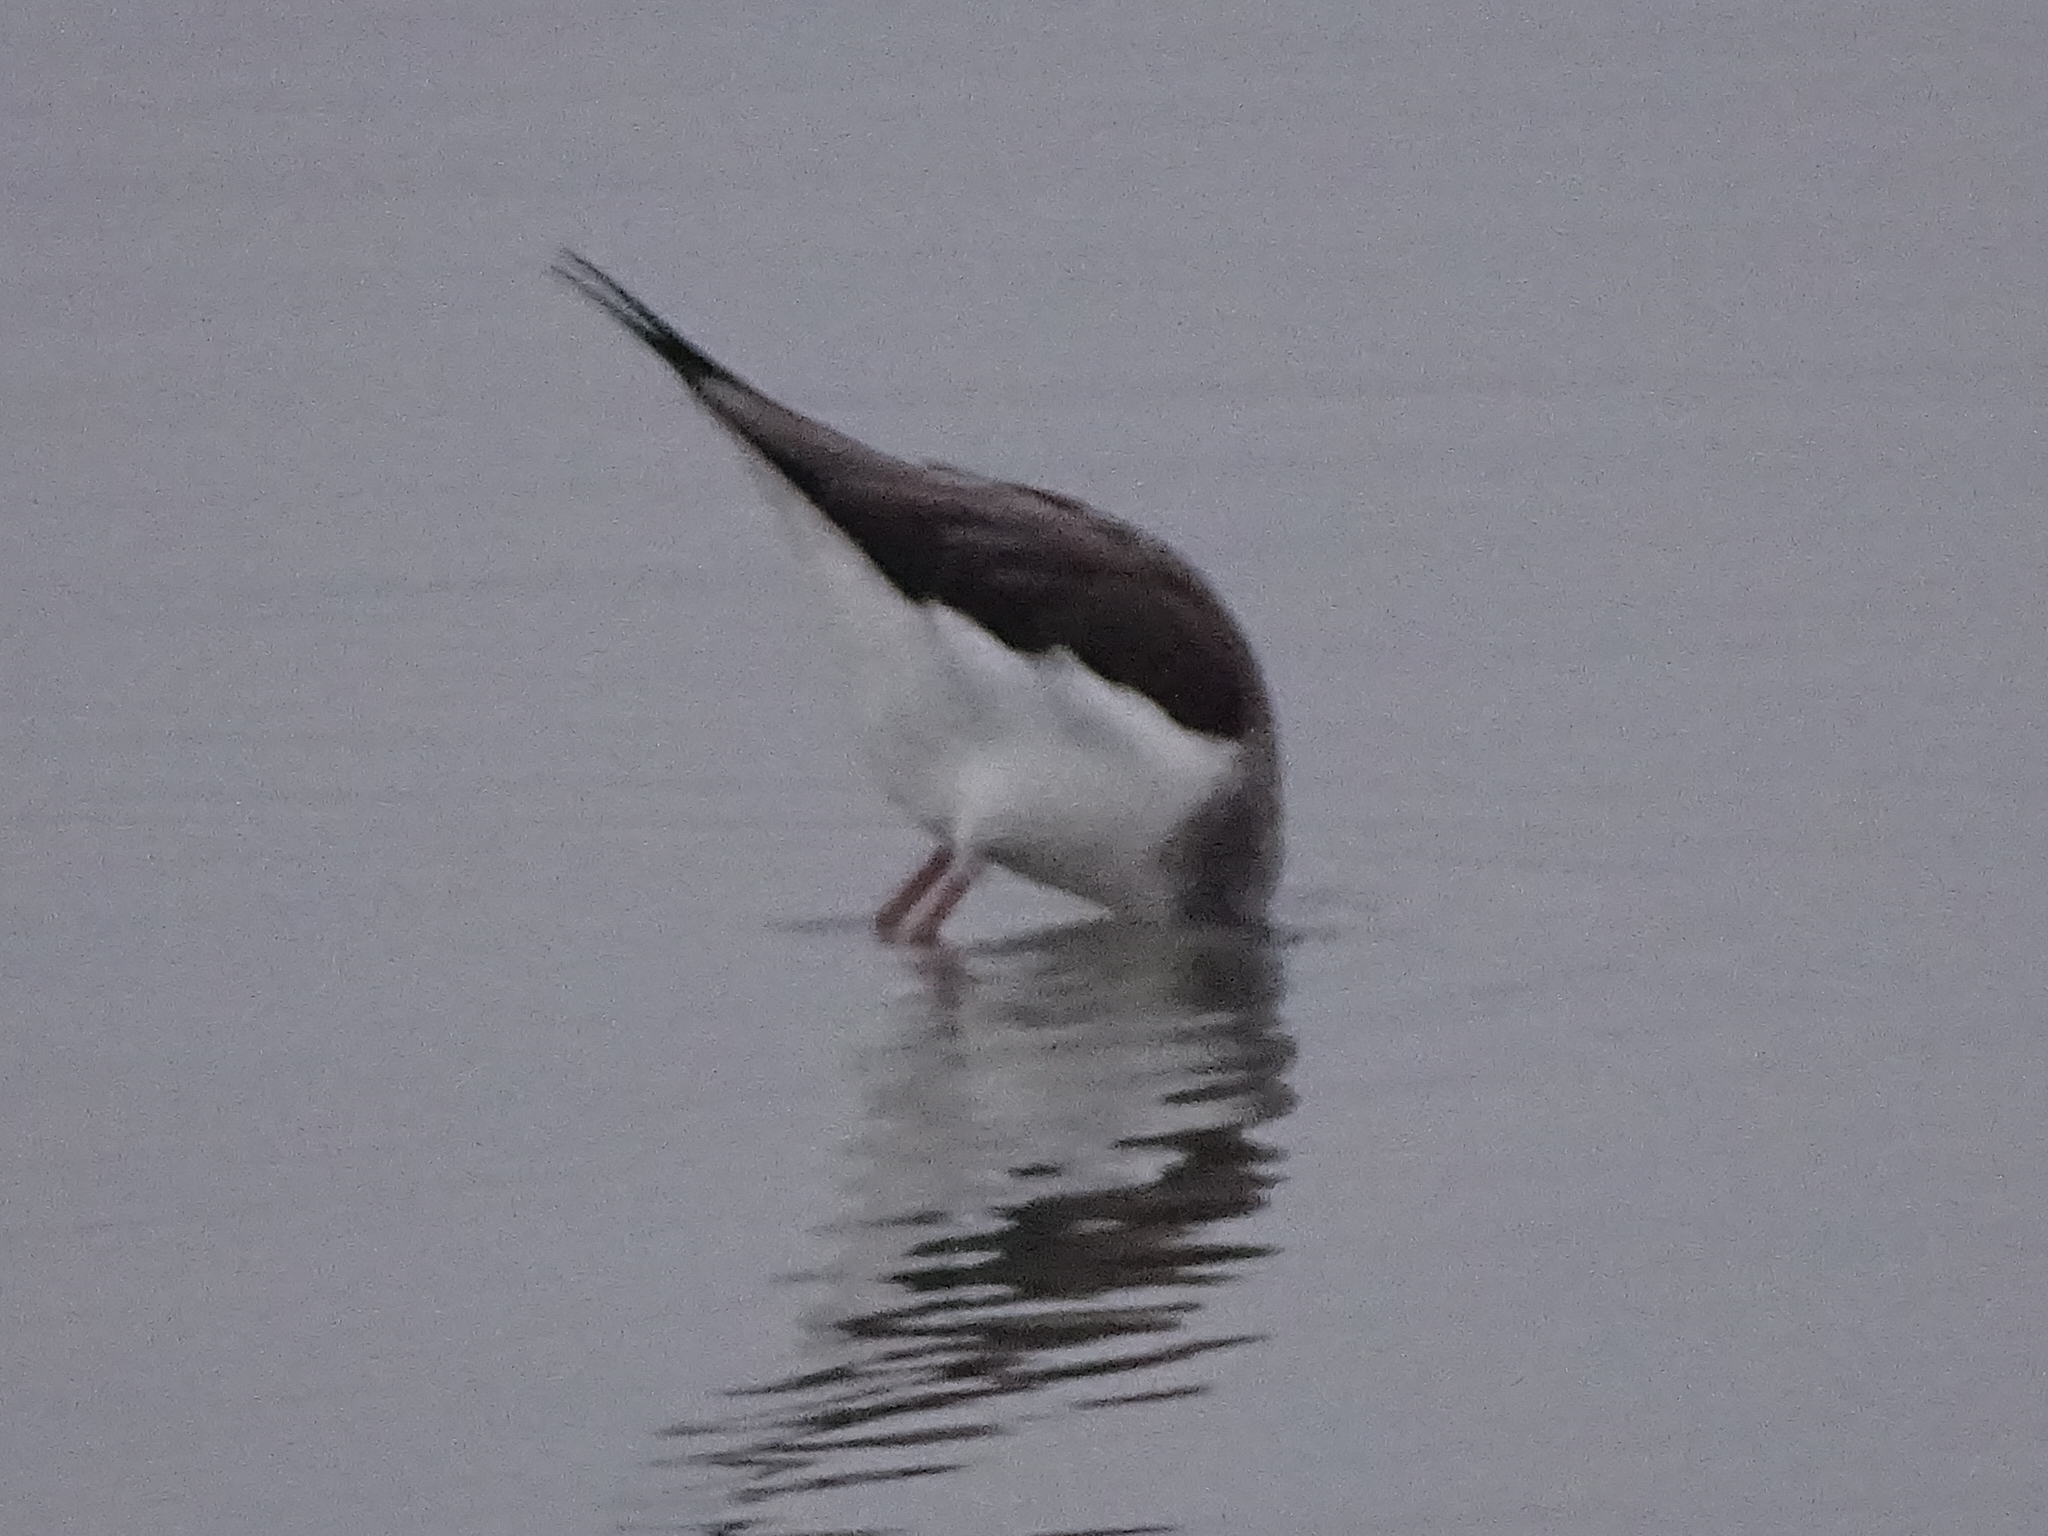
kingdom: Animalia
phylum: Chordata
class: Aves
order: Charadriiformes
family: Recurvirostridae
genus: Himantopus
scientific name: Himantopus himantopus
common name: Black-winged stilt
